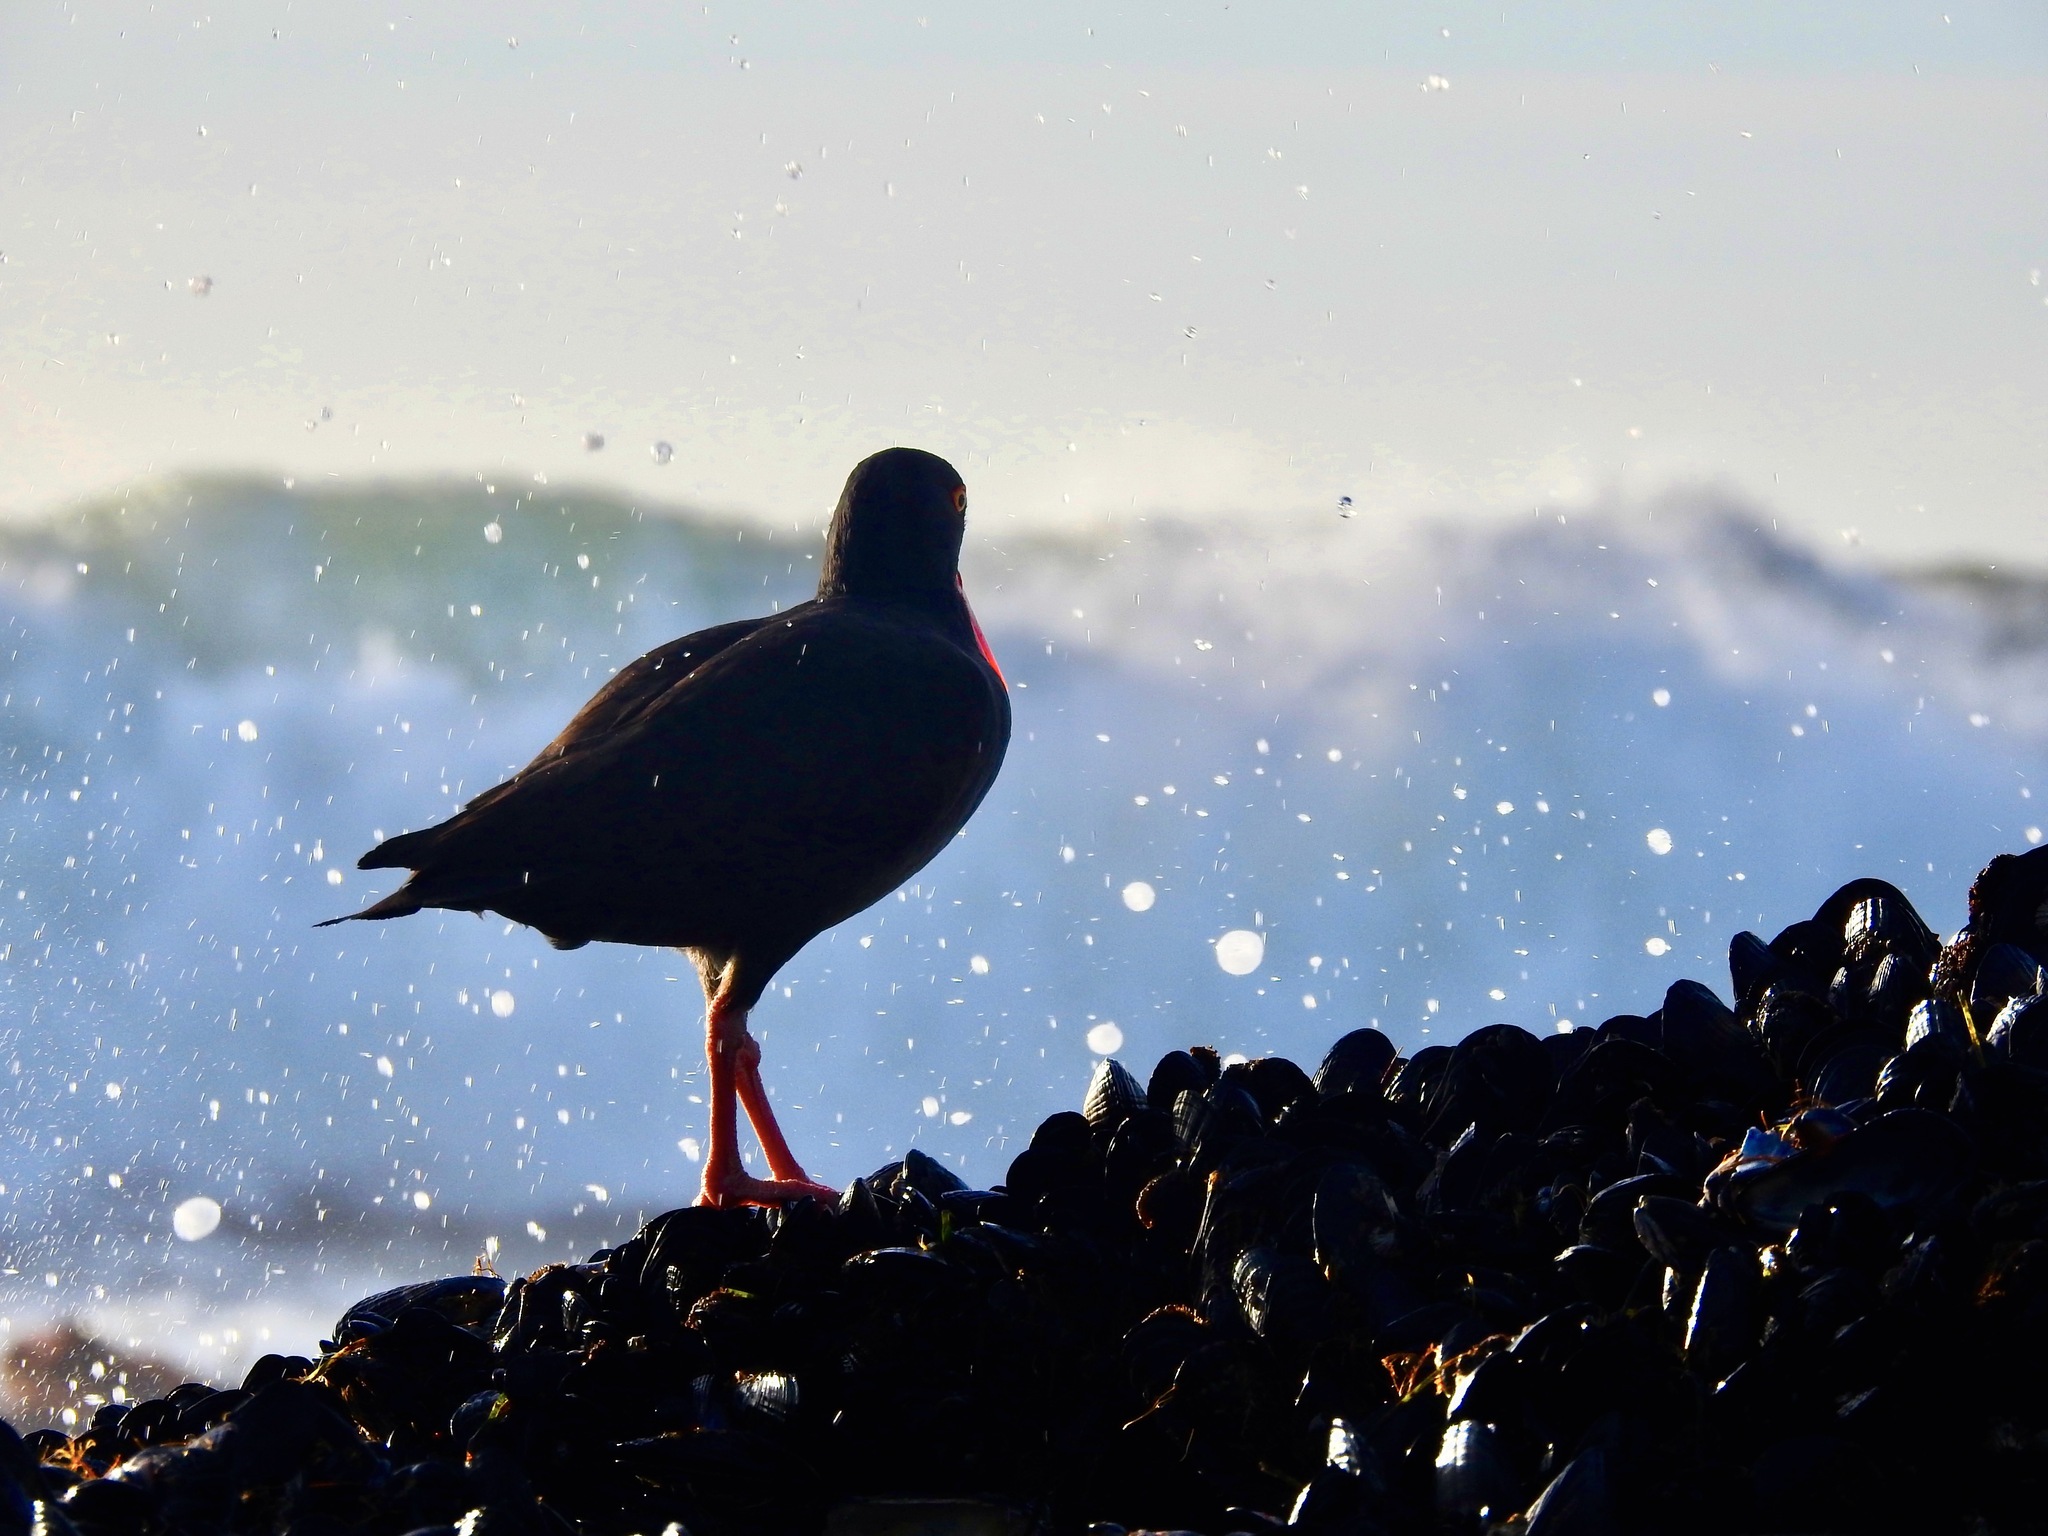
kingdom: Animalia
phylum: Chordata
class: Aves
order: Charadriiformes
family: Haematopodidae
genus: Haematopus
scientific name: Haematopus bachmani
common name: Black oystercatcher
